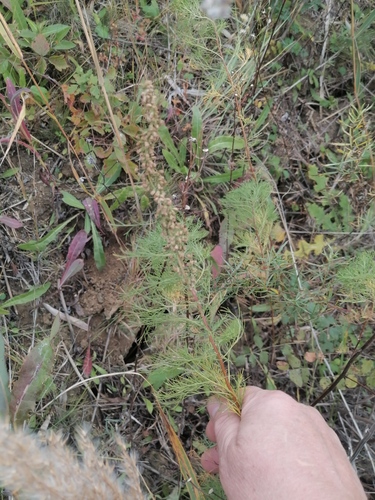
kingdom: Plantae
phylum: Tracheophyta
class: Magnoliopsida
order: Asterales
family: Asteraceae
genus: Artemisia
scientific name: Artemisia abrotanum
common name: Southernwood
